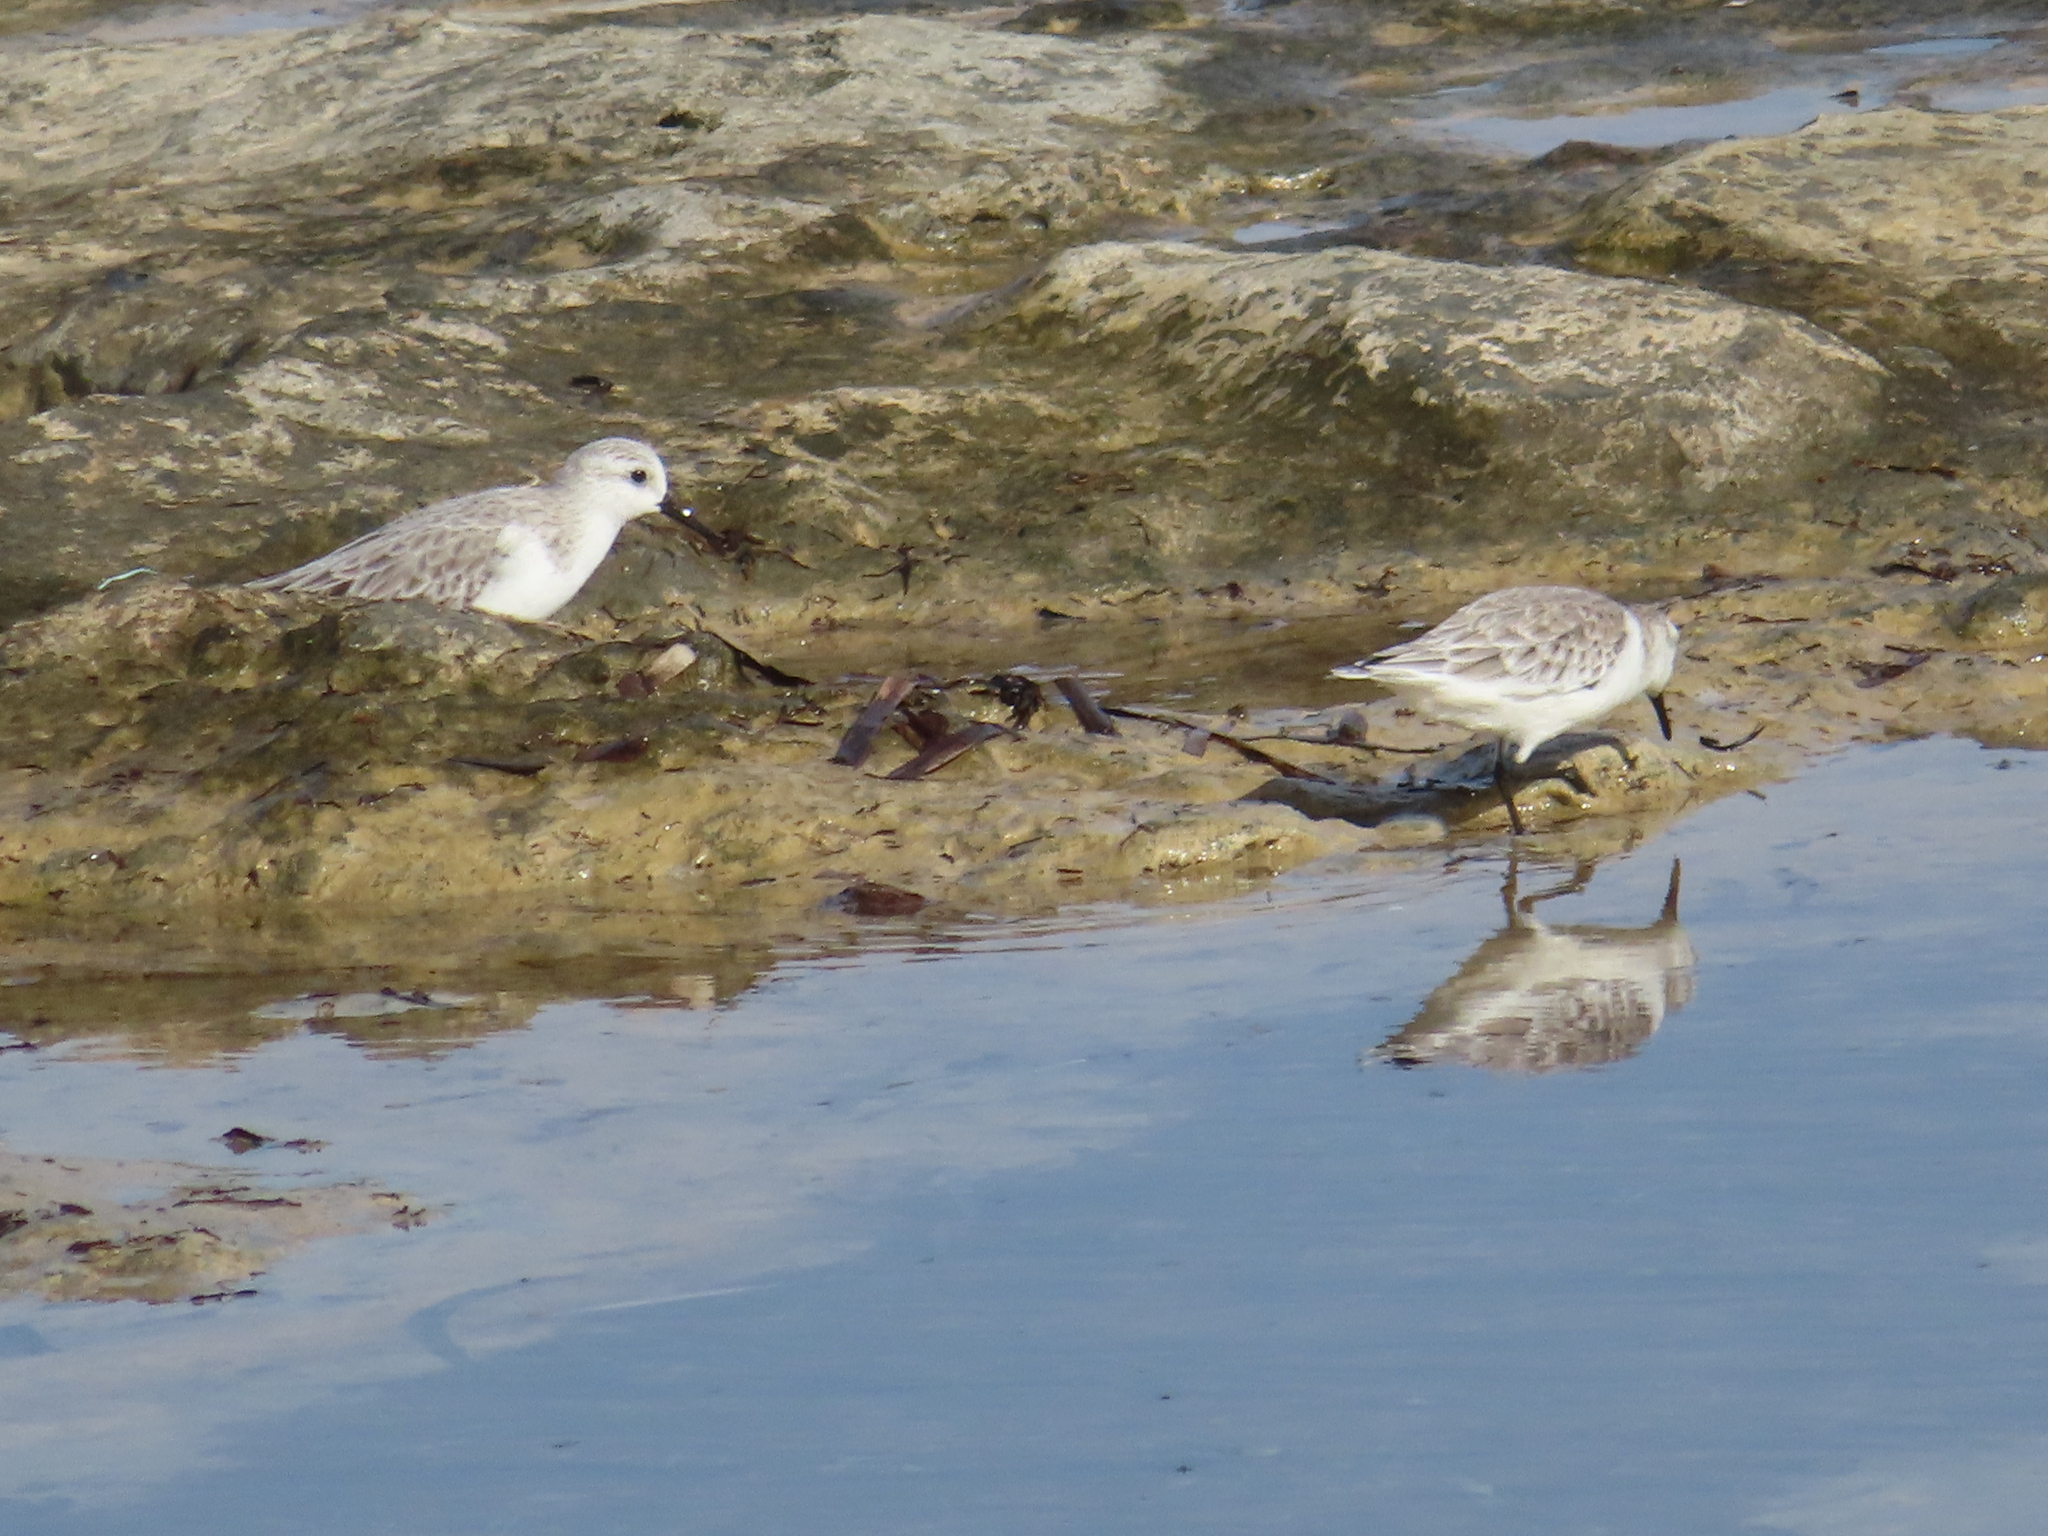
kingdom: Animalia
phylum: Chordata
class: Aves
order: Charadriiformes
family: Scolopacidae
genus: Calidris
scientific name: Calidris alba
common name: Sanderling
